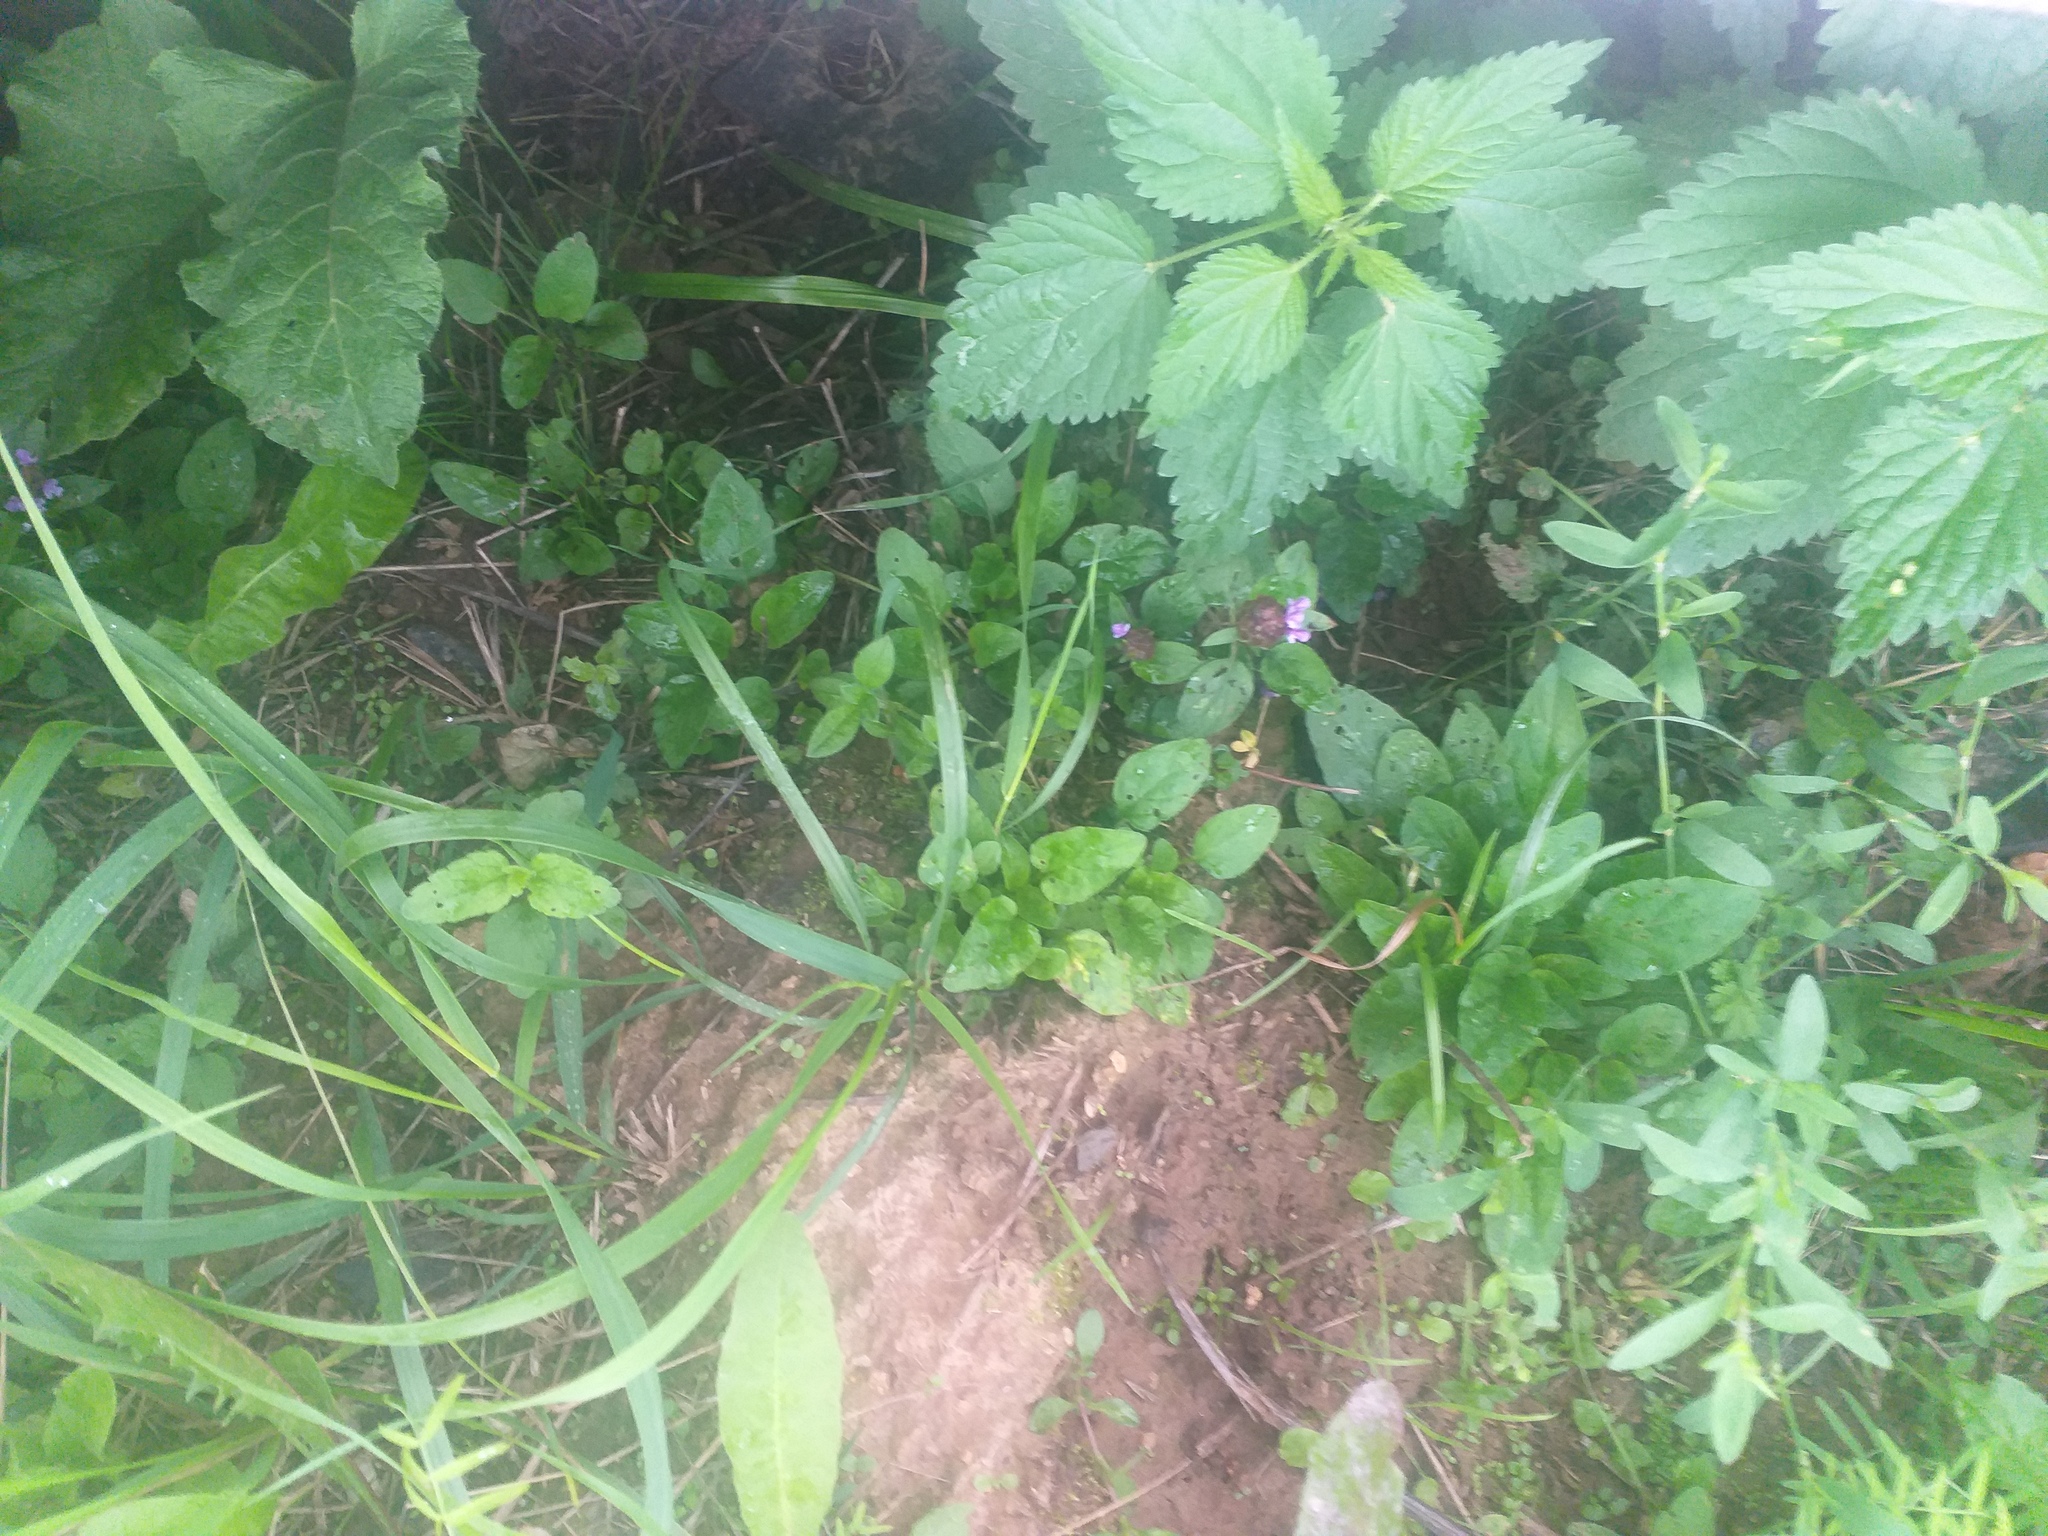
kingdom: Plantae
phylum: Tracheophyta
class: Magnoliopsida
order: Lamiales
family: Lamiaceae
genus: Prunella
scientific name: Prunella vulgaris
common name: Heal-all
